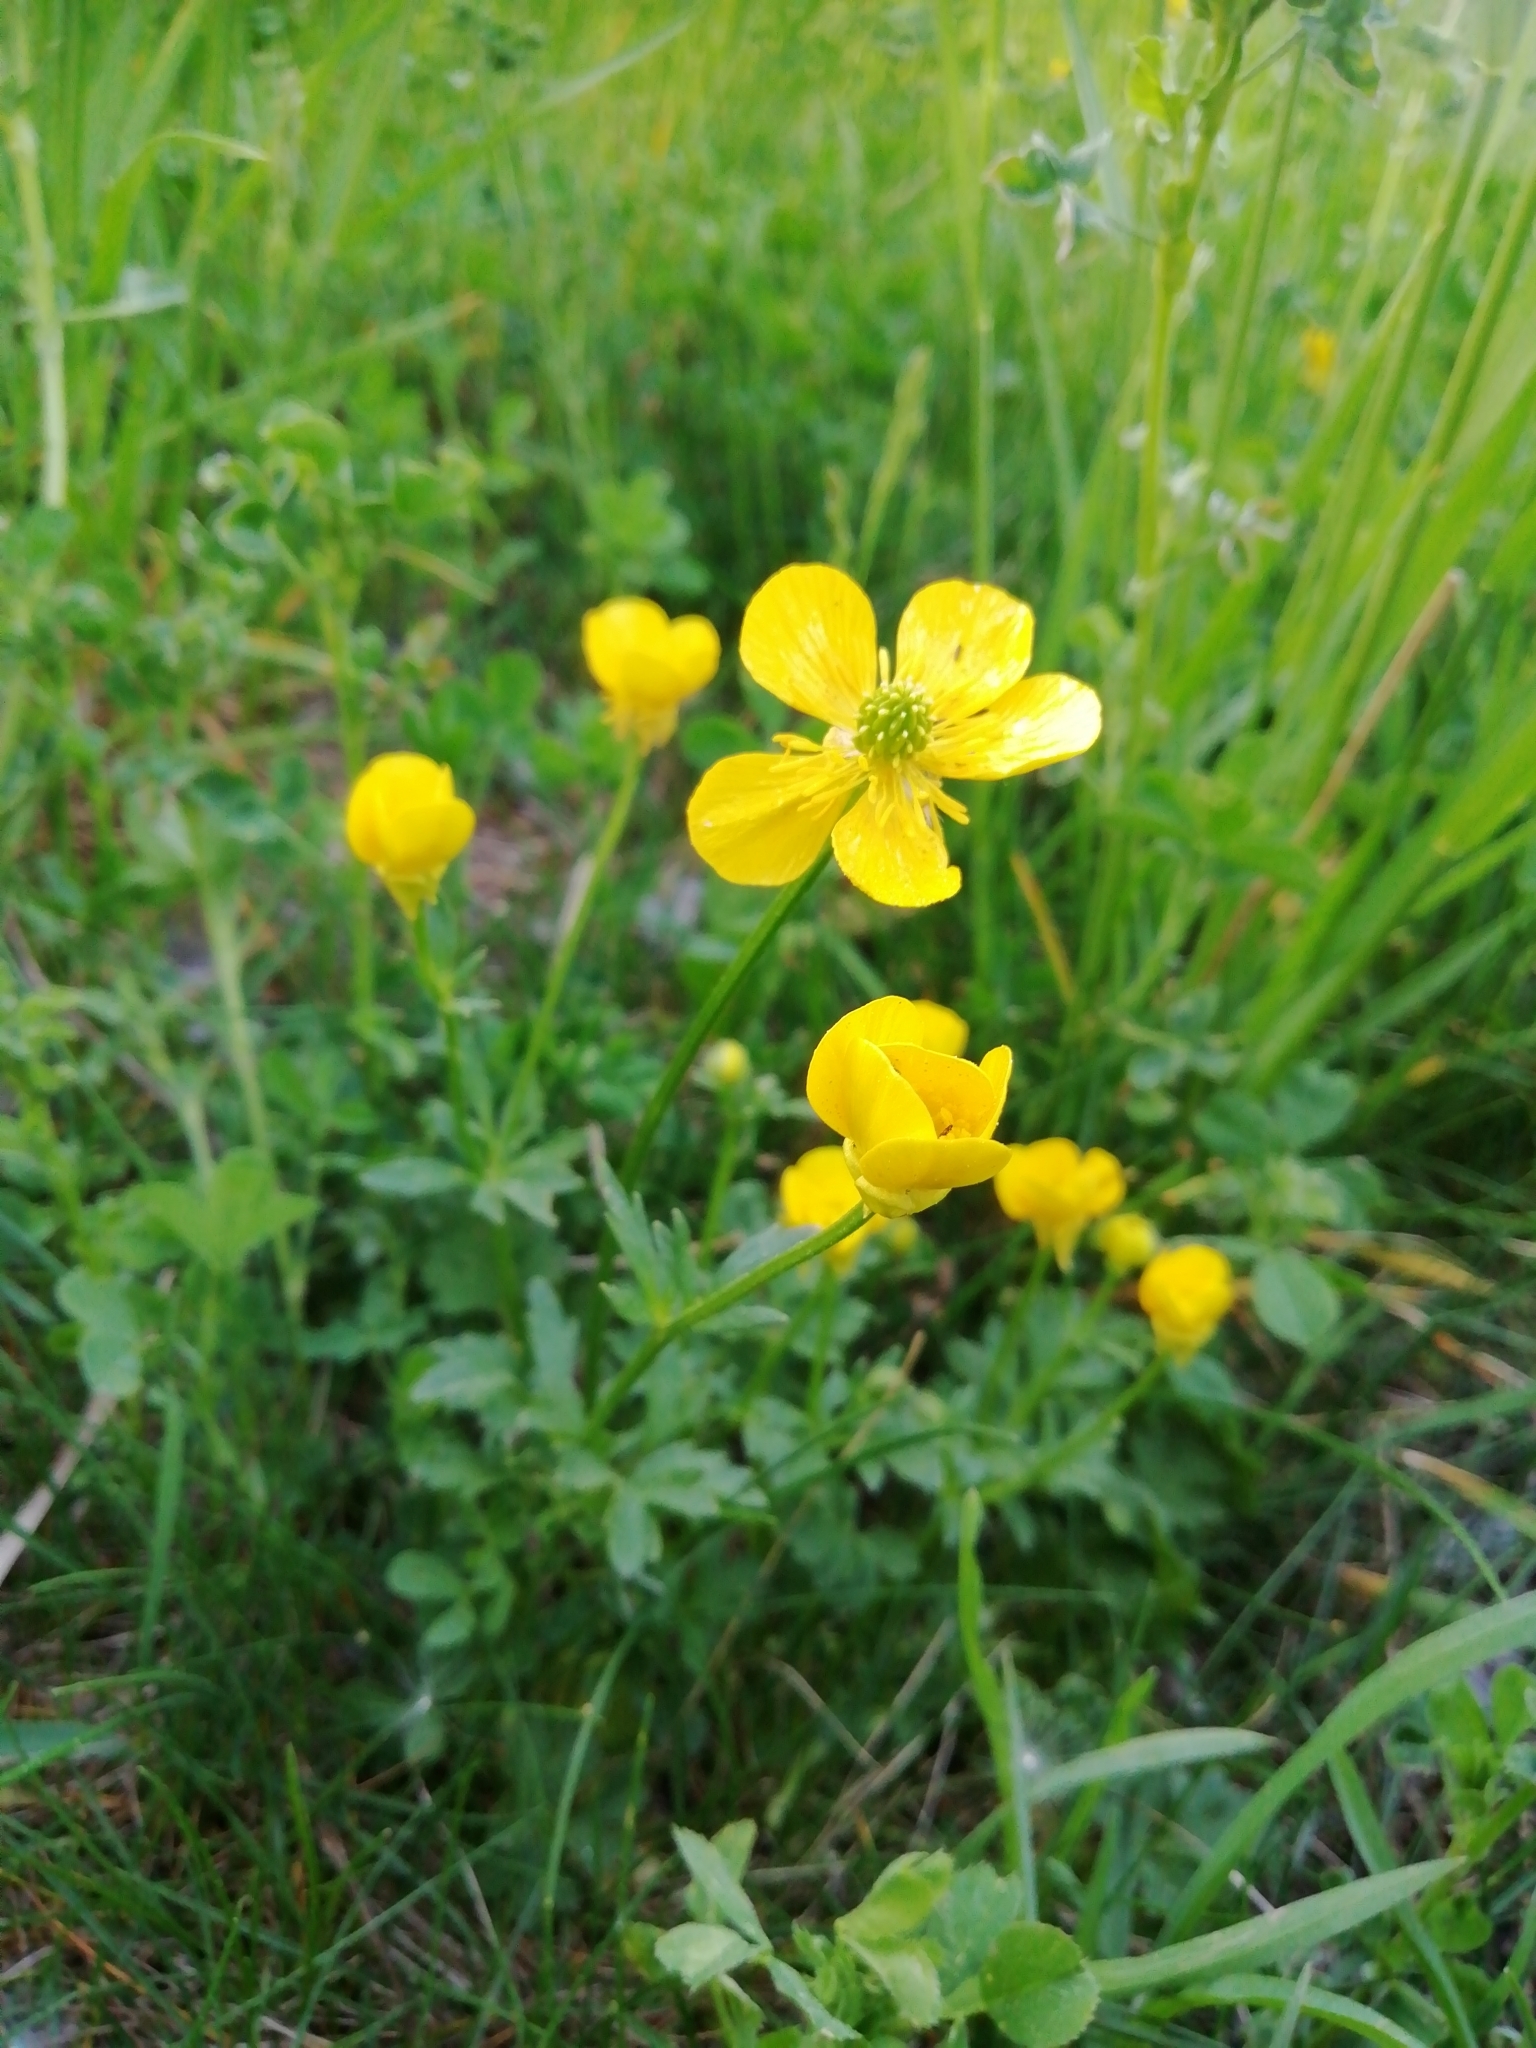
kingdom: Plantae
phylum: Tracheophyta
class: Magnoliopsida
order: Ranunculales
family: Ranunculaceae
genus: Ranunculus
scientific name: Ranunculus bulbosus
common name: Bulbous buttercup
